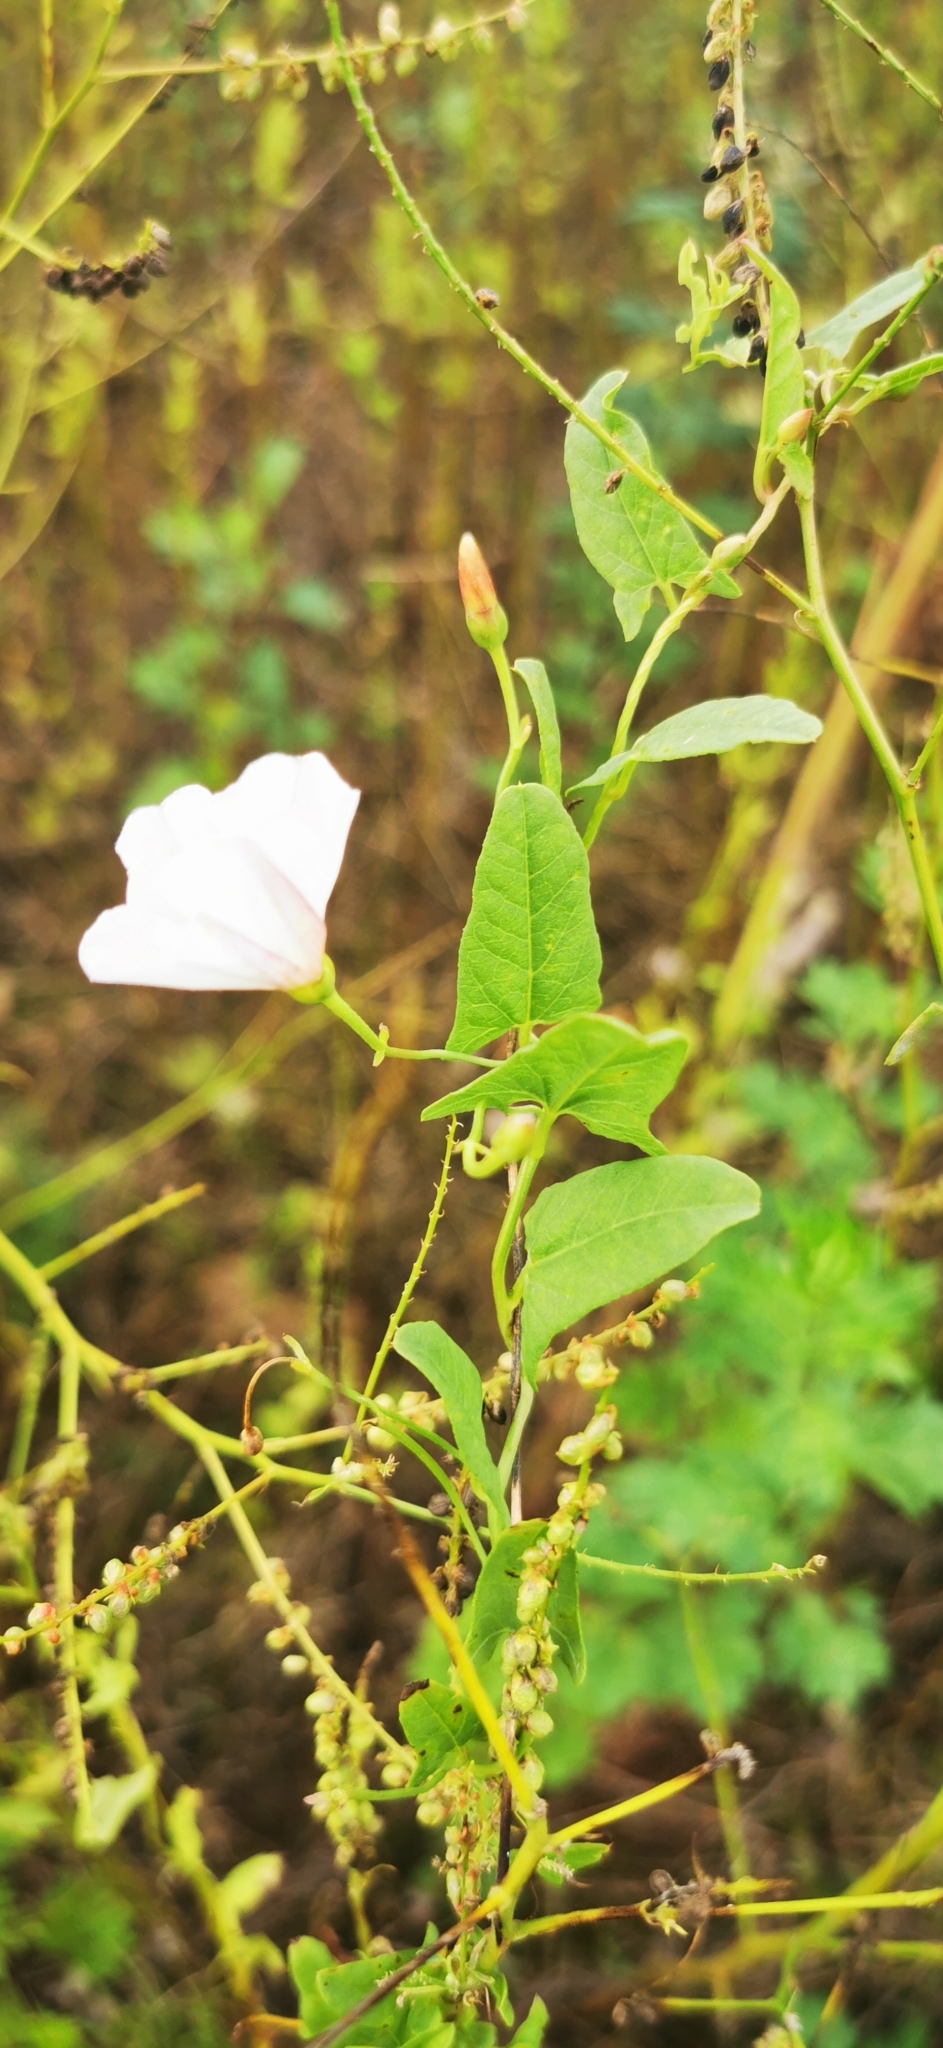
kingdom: Plantae
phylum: Tracheophyta
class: Magnoliopsida
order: Solanales
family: Convolvulaceae
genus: Convolvulus
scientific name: Convolvulus arvensis
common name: Field bindweed
